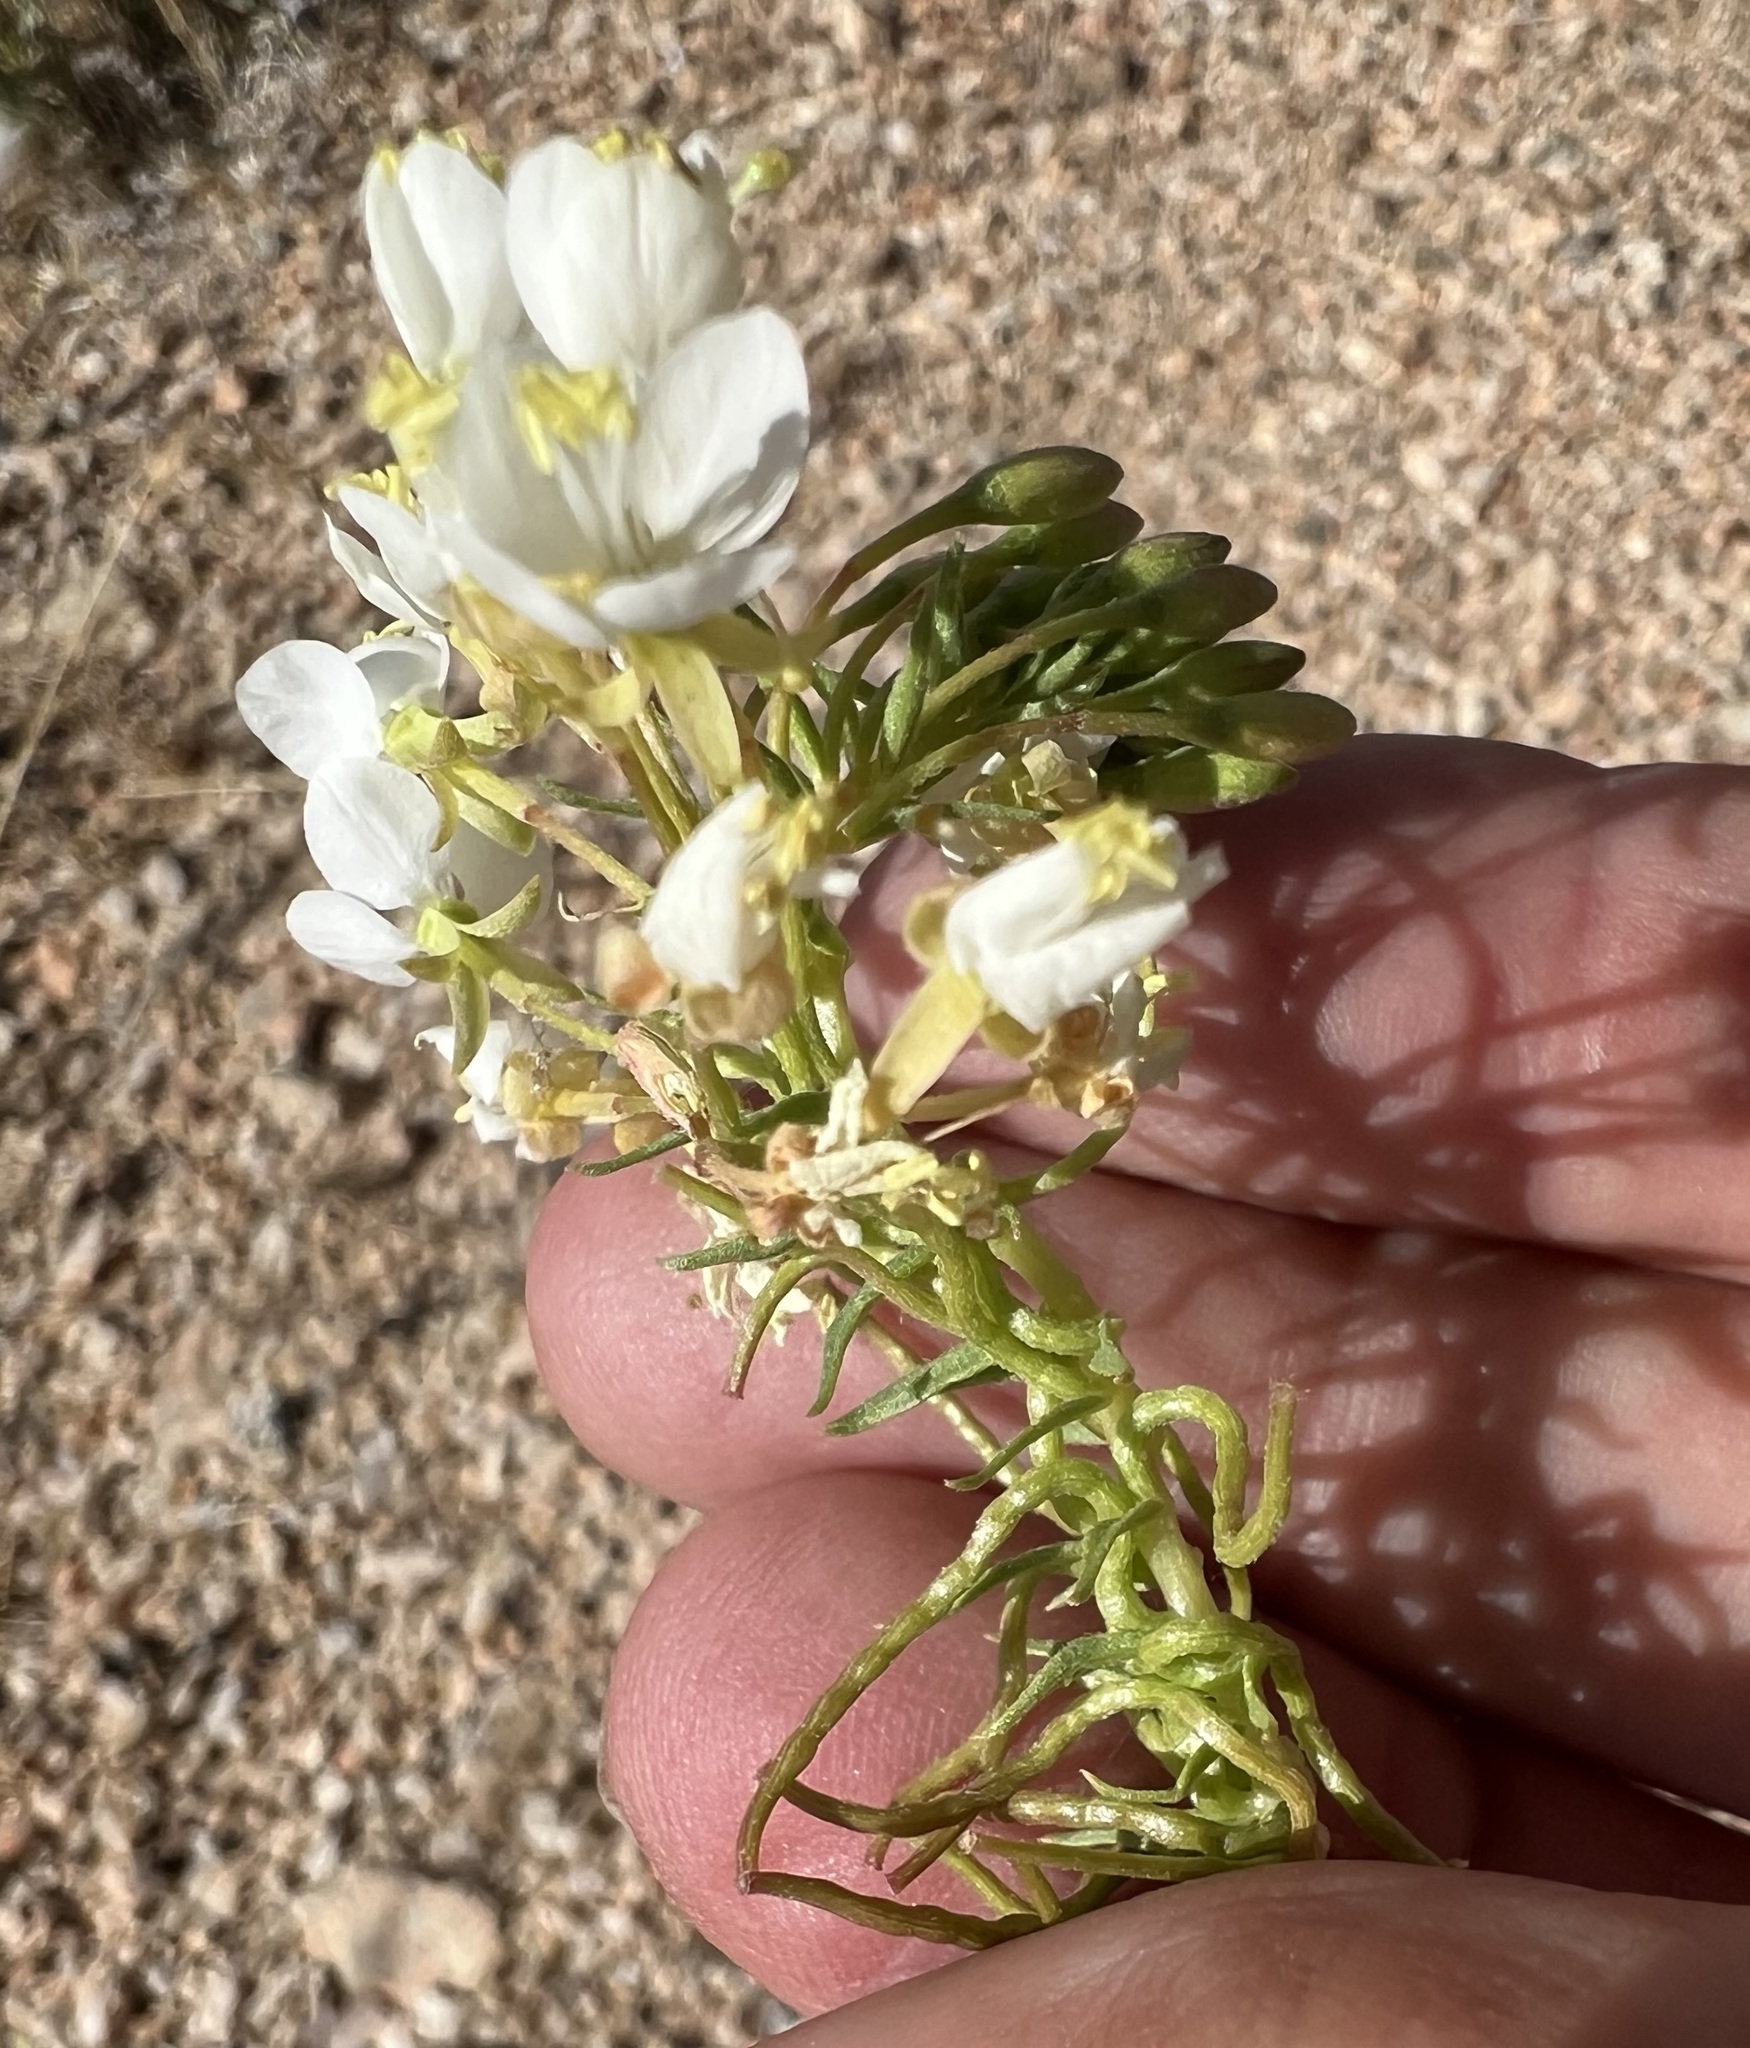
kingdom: Plantae
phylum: Tracheophyta
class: Magnoliopsida
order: Myrtales
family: Onagraceae
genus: Eremothera
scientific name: Eremothera boothii
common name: Booth's evening primrose
